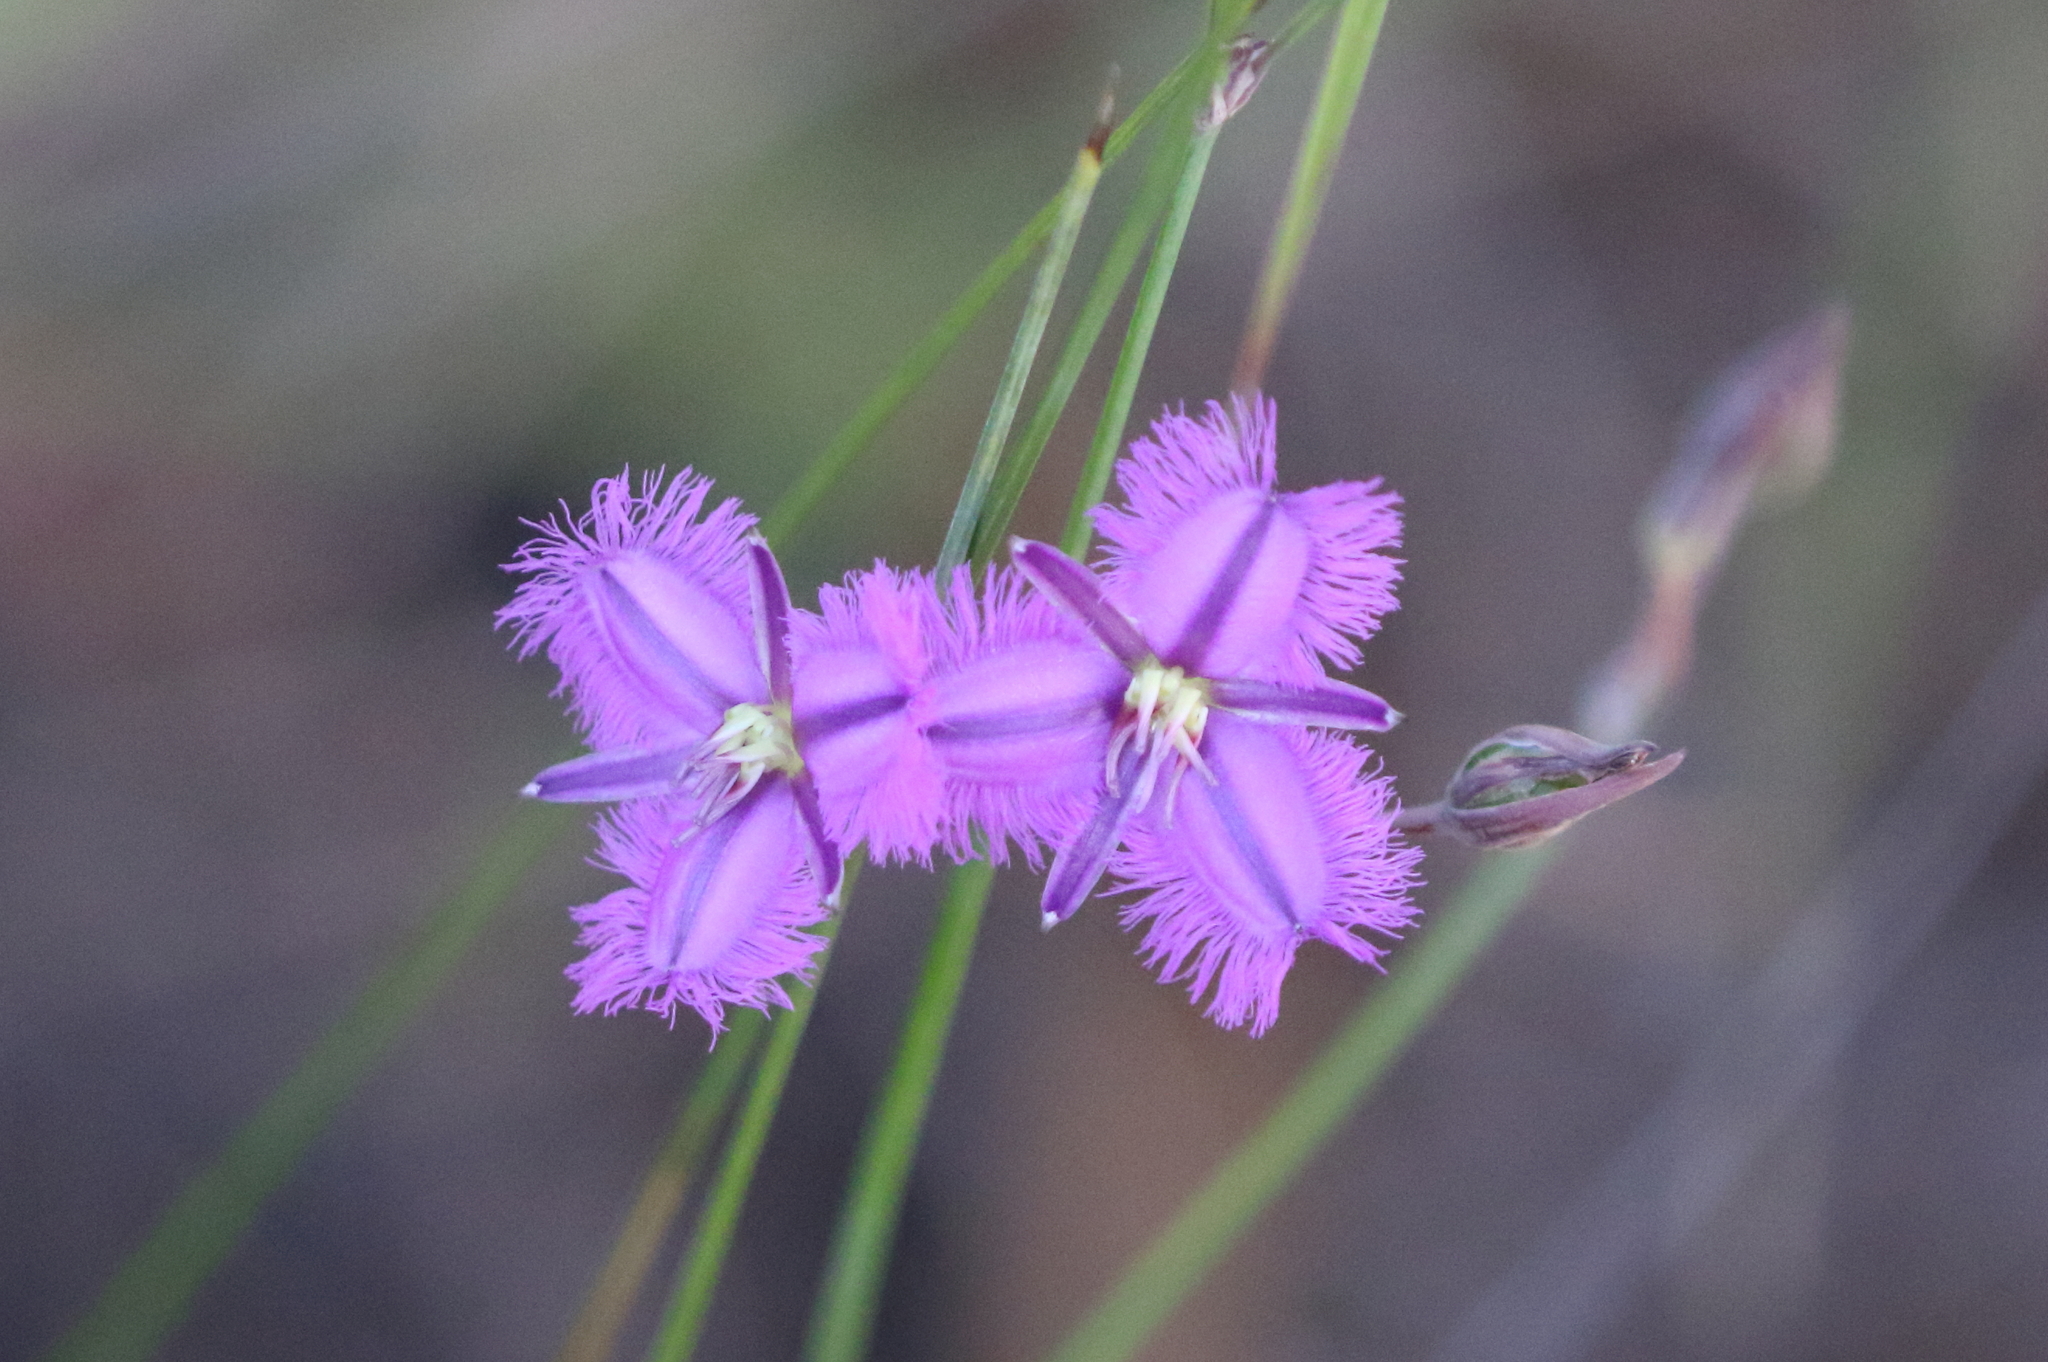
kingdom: Plantae
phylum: Tracheophyta
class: Liliopsida
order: Asparagales
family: Asparagaceae
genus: Thysanotus
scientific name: Thysanotus tuberosus
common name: Common fringed-lily
